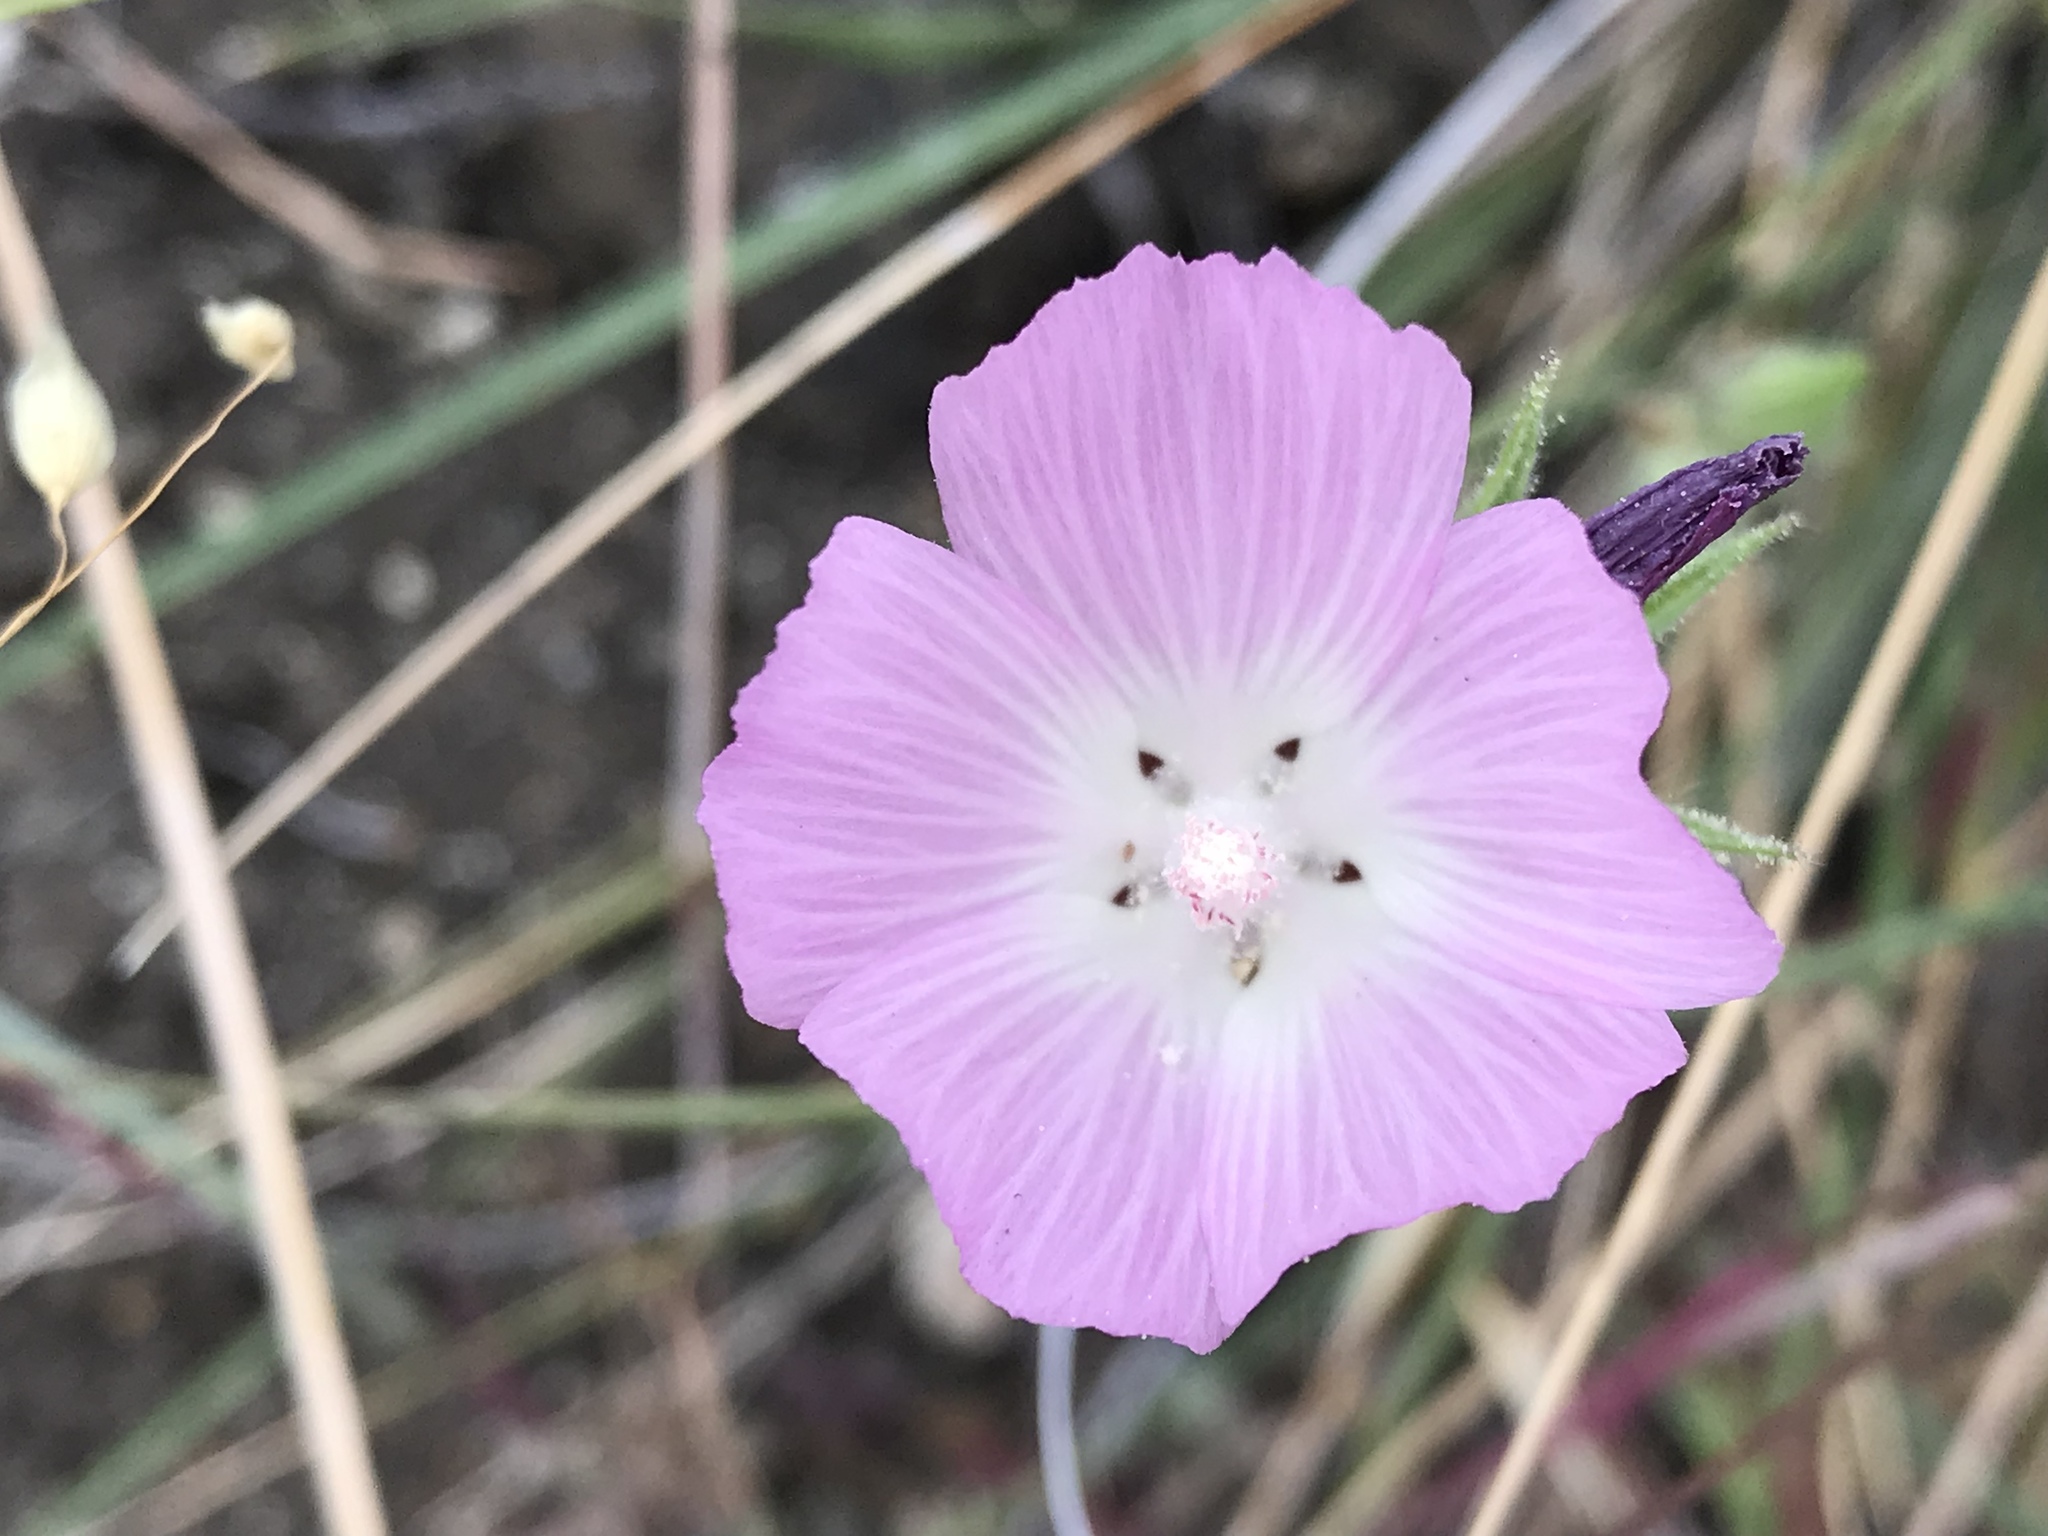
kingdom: Plantae
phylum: Tracheophyta
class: Magnoliopsida
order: Malvales
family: Malvaceae
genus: Sidalcea
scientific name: Sidalcea diploscypha
